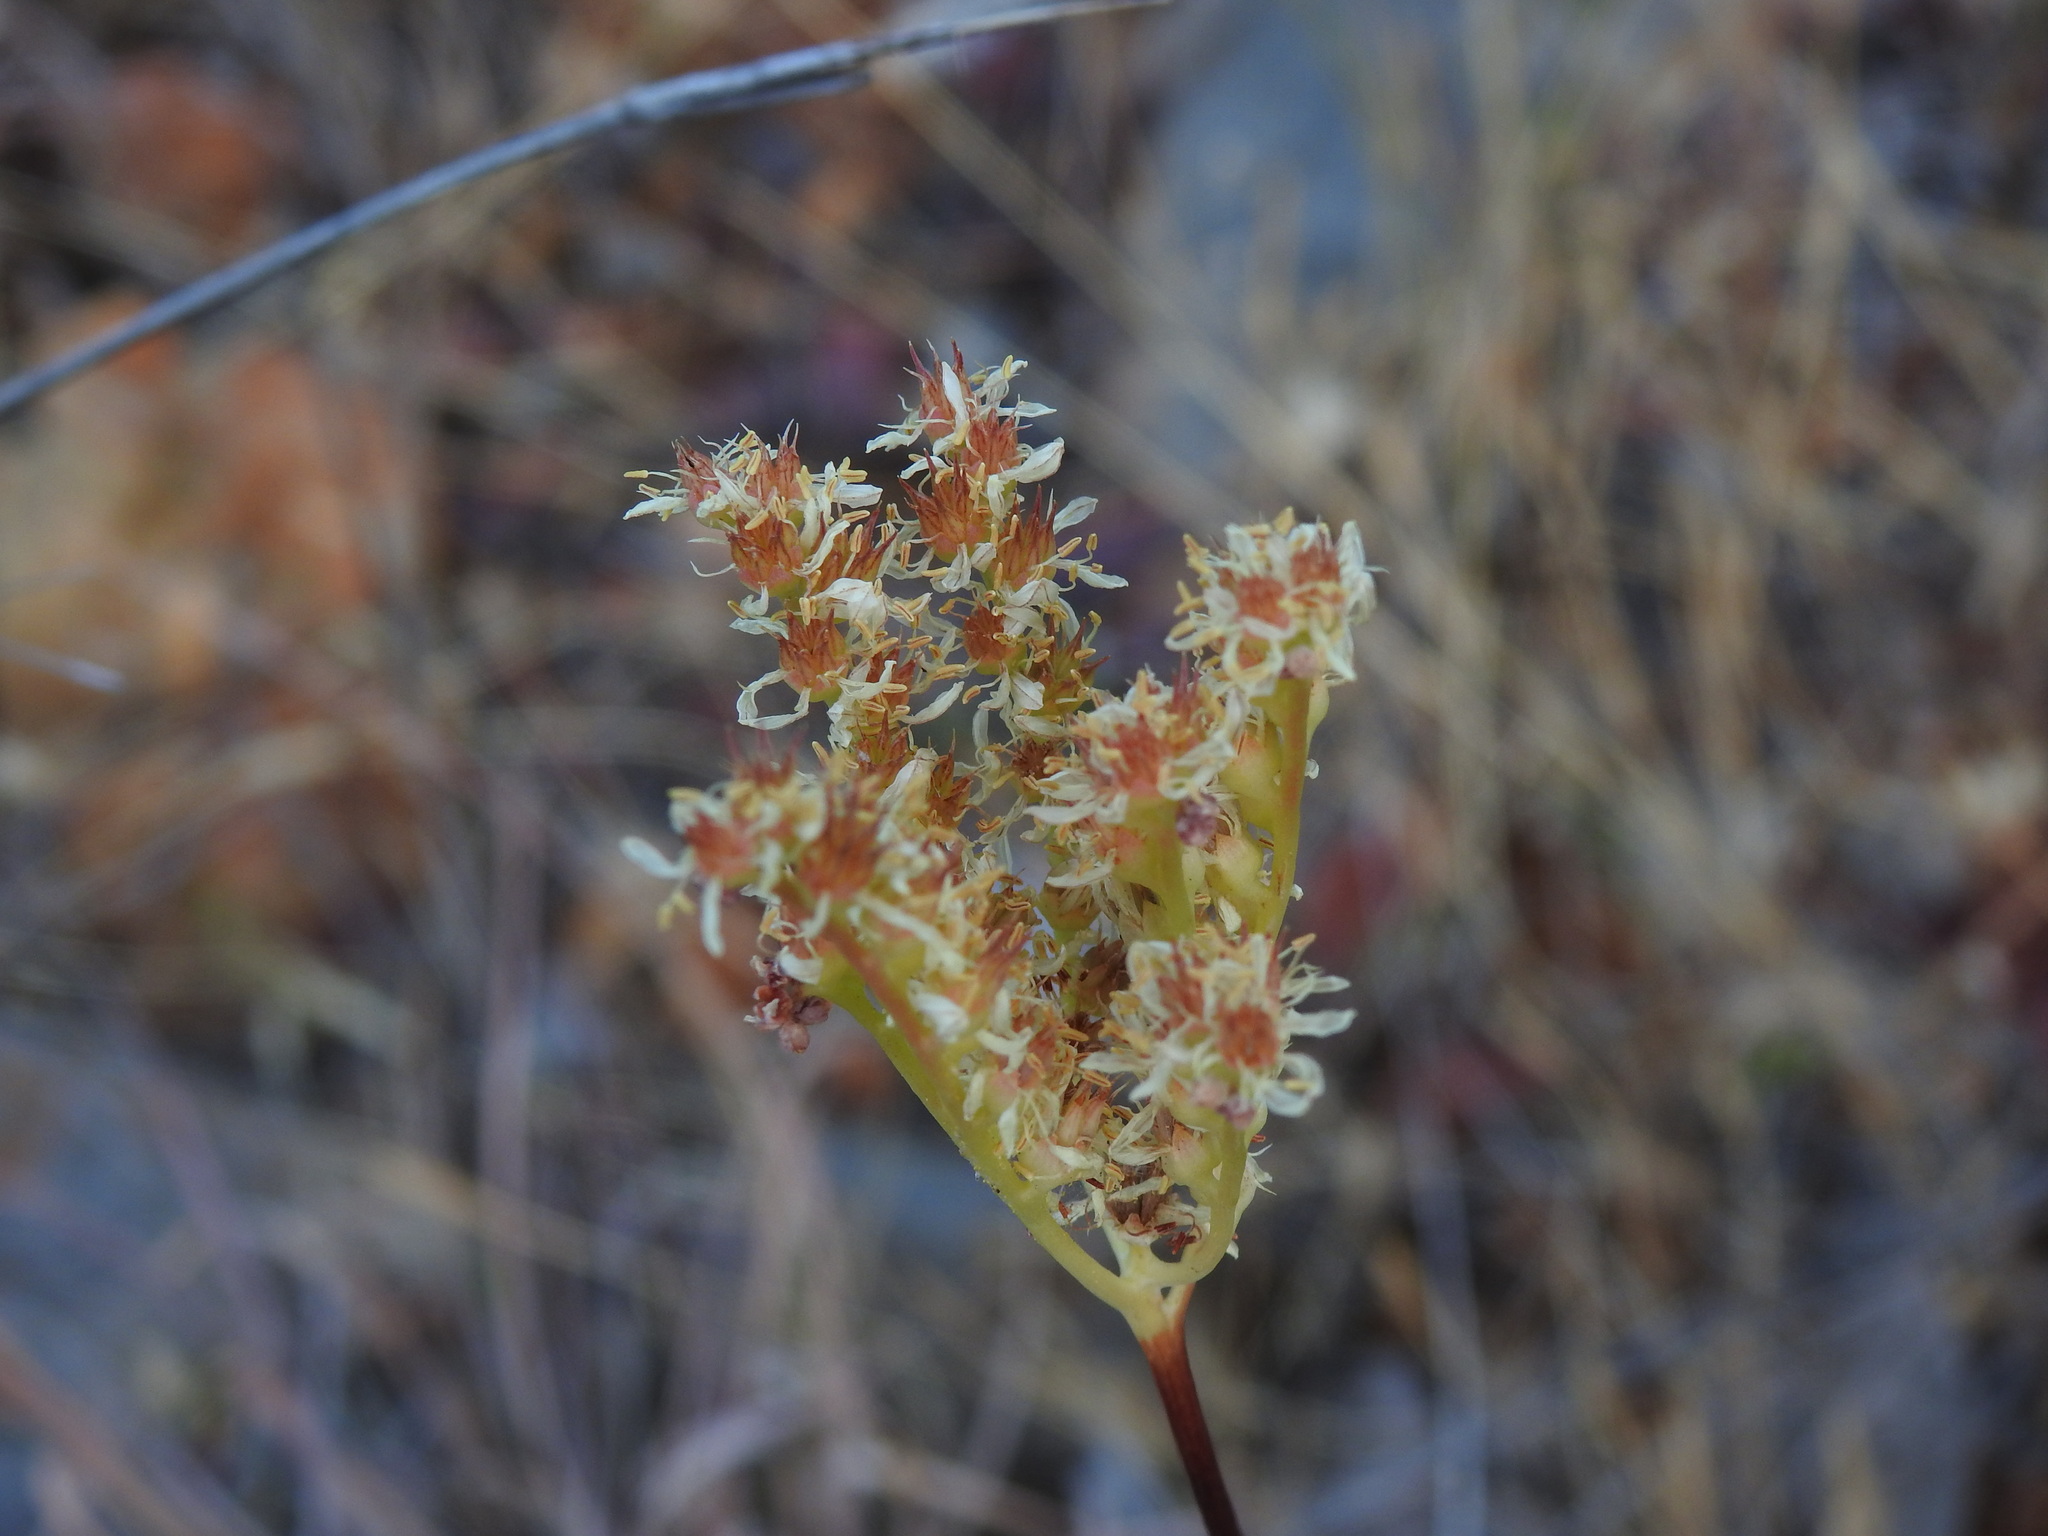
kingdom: Plantae
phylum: Tracheophyta
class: Magnoliopsida
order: Saxifragales
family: Crassulaceae
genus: Petrosedum
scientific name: Petrosedum sediforme
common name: Pale stonecrop
